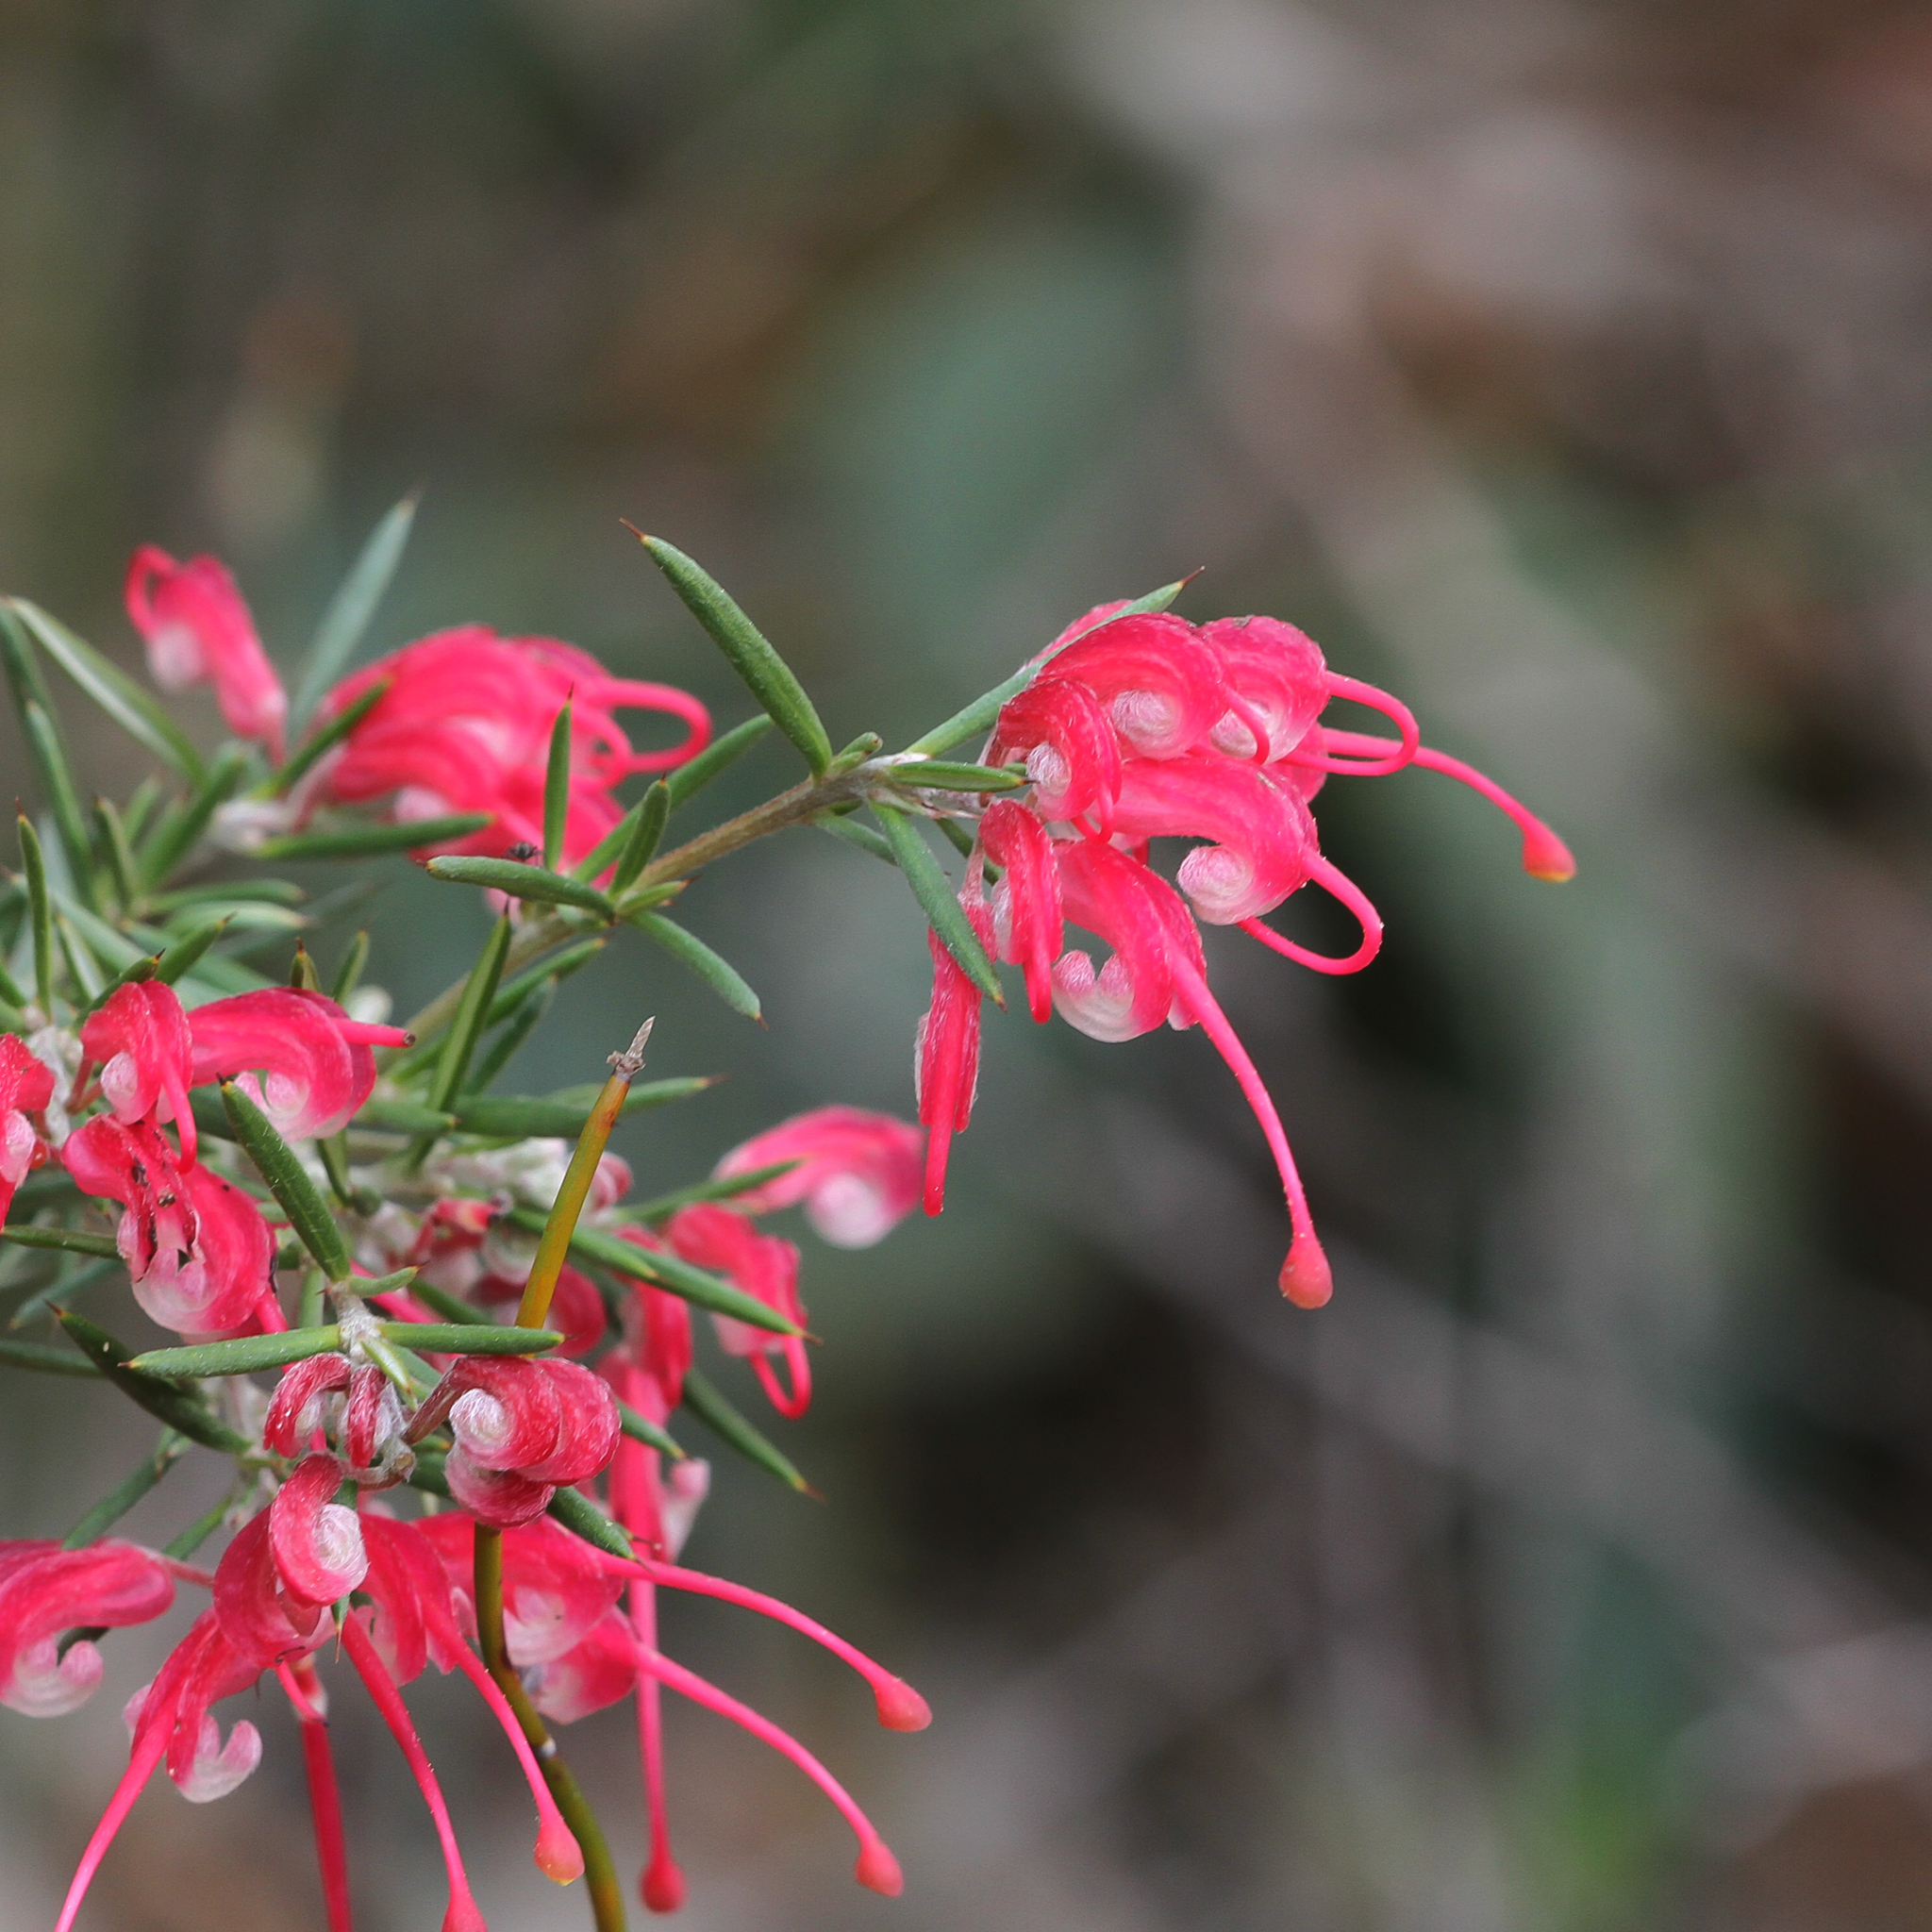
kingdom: Plantae
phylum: Tracheophyta
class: Magnoliopsida
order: Proteales
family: Proteaceae
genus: Grevillea
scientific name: Grevillea lavandulacea
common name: Lavender grevillea
